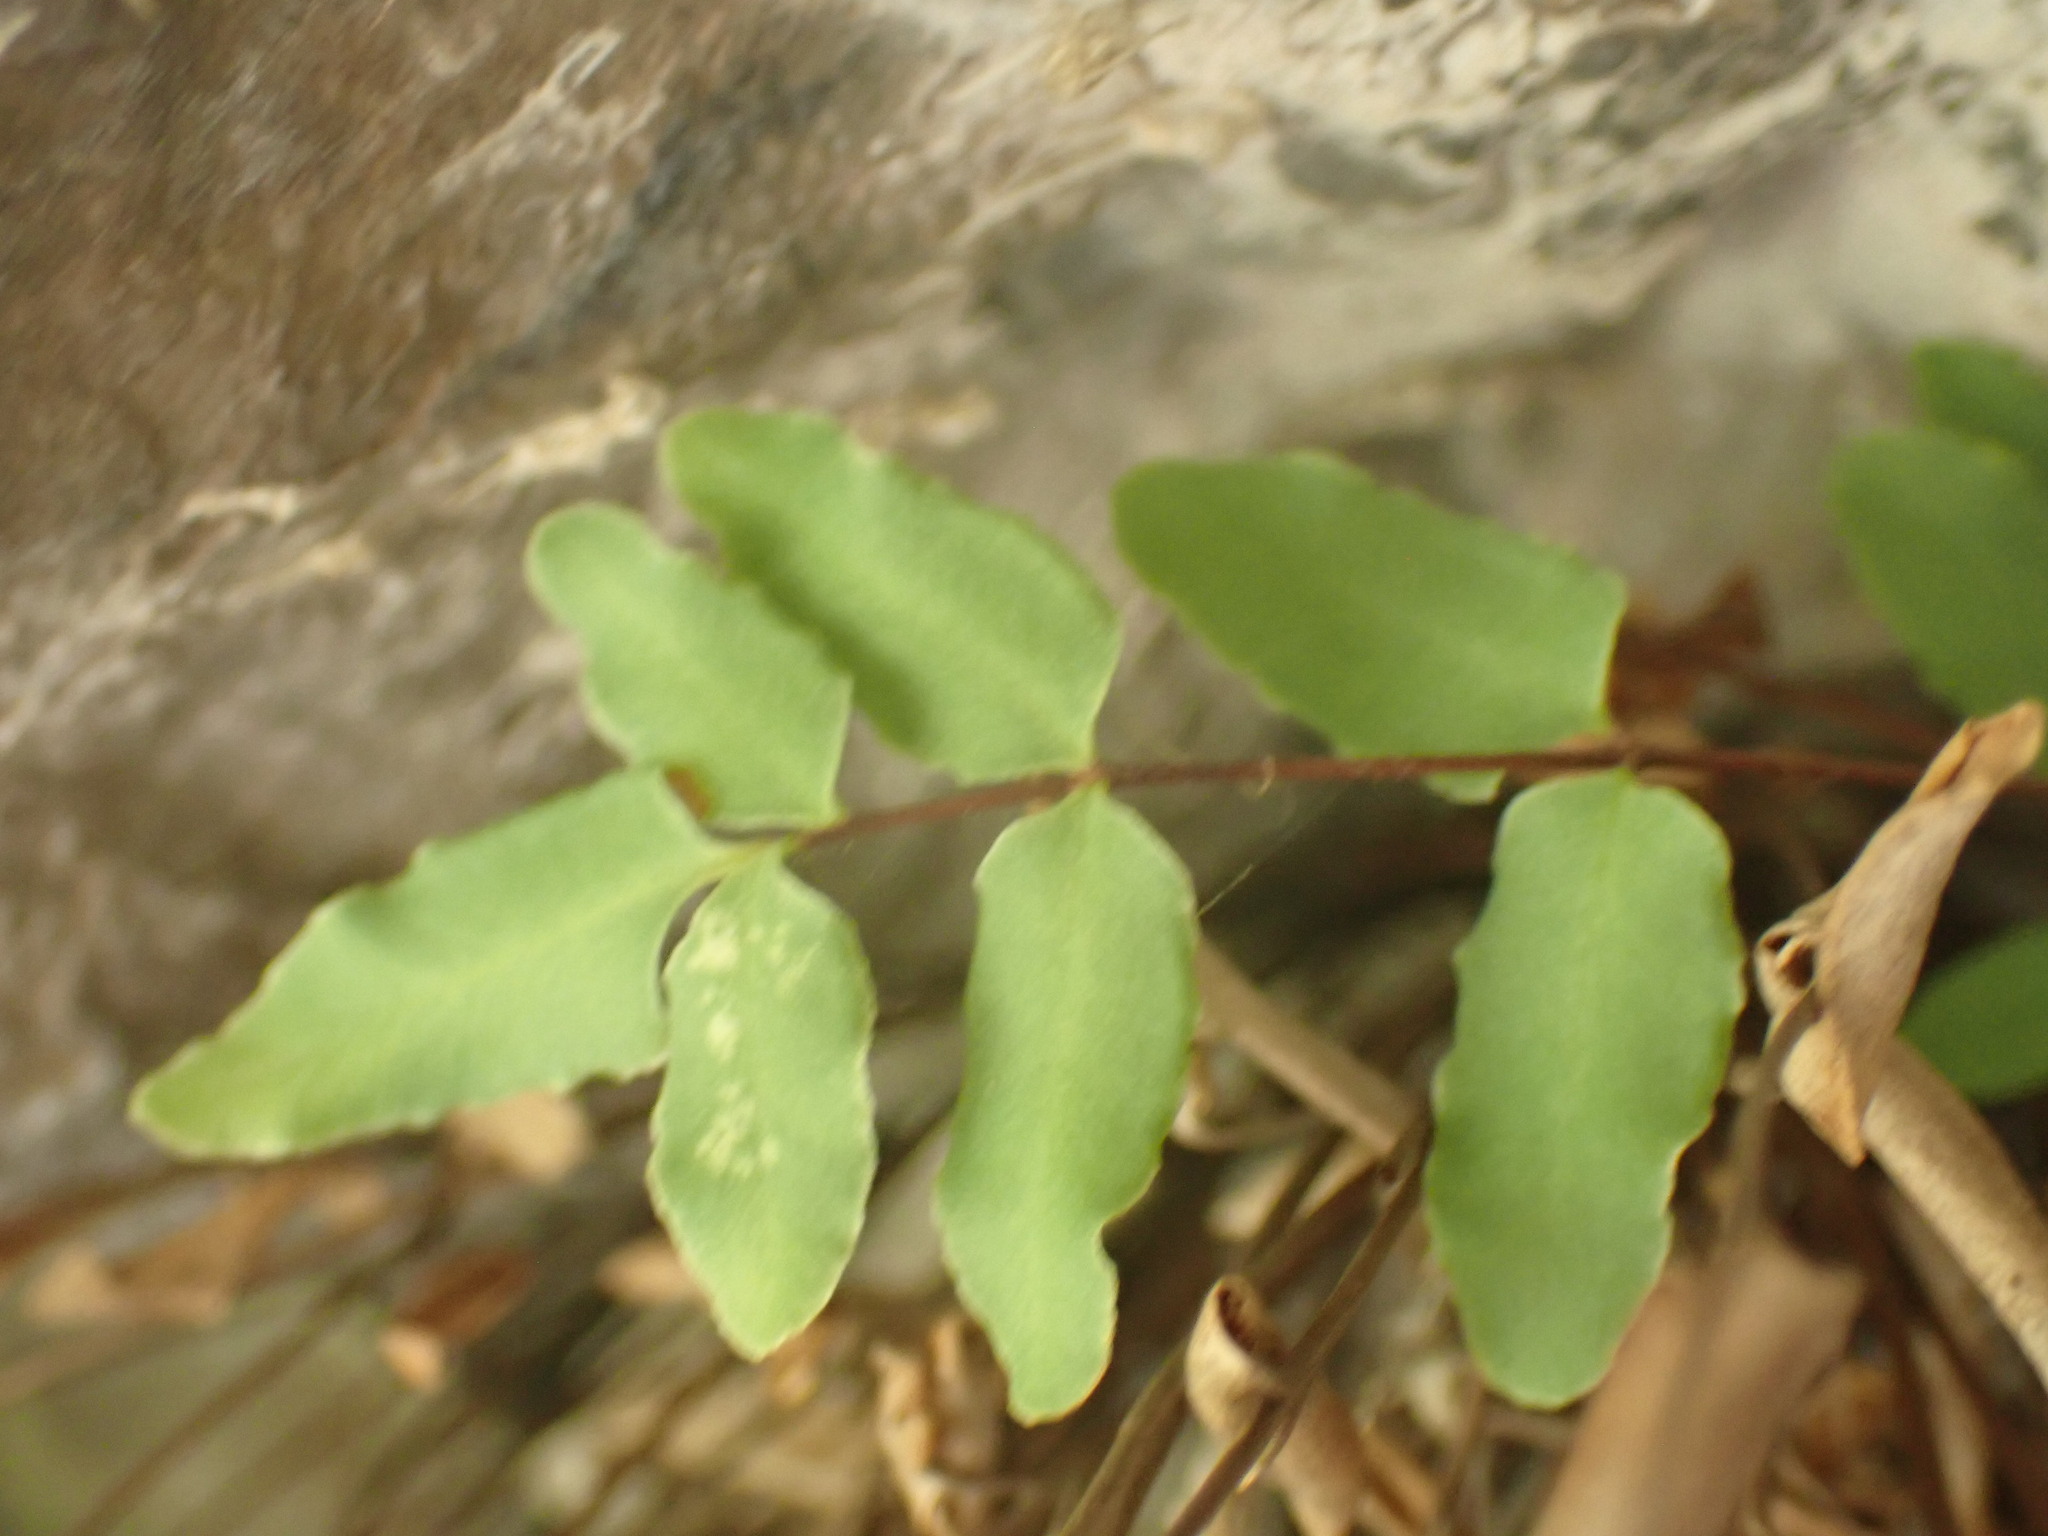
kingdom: Plantae
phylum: Tracheophyta
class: Polypodiopsida
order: Polypodiales
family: Pteridaceae
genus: Pellaea
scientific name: Pellaea glabella
